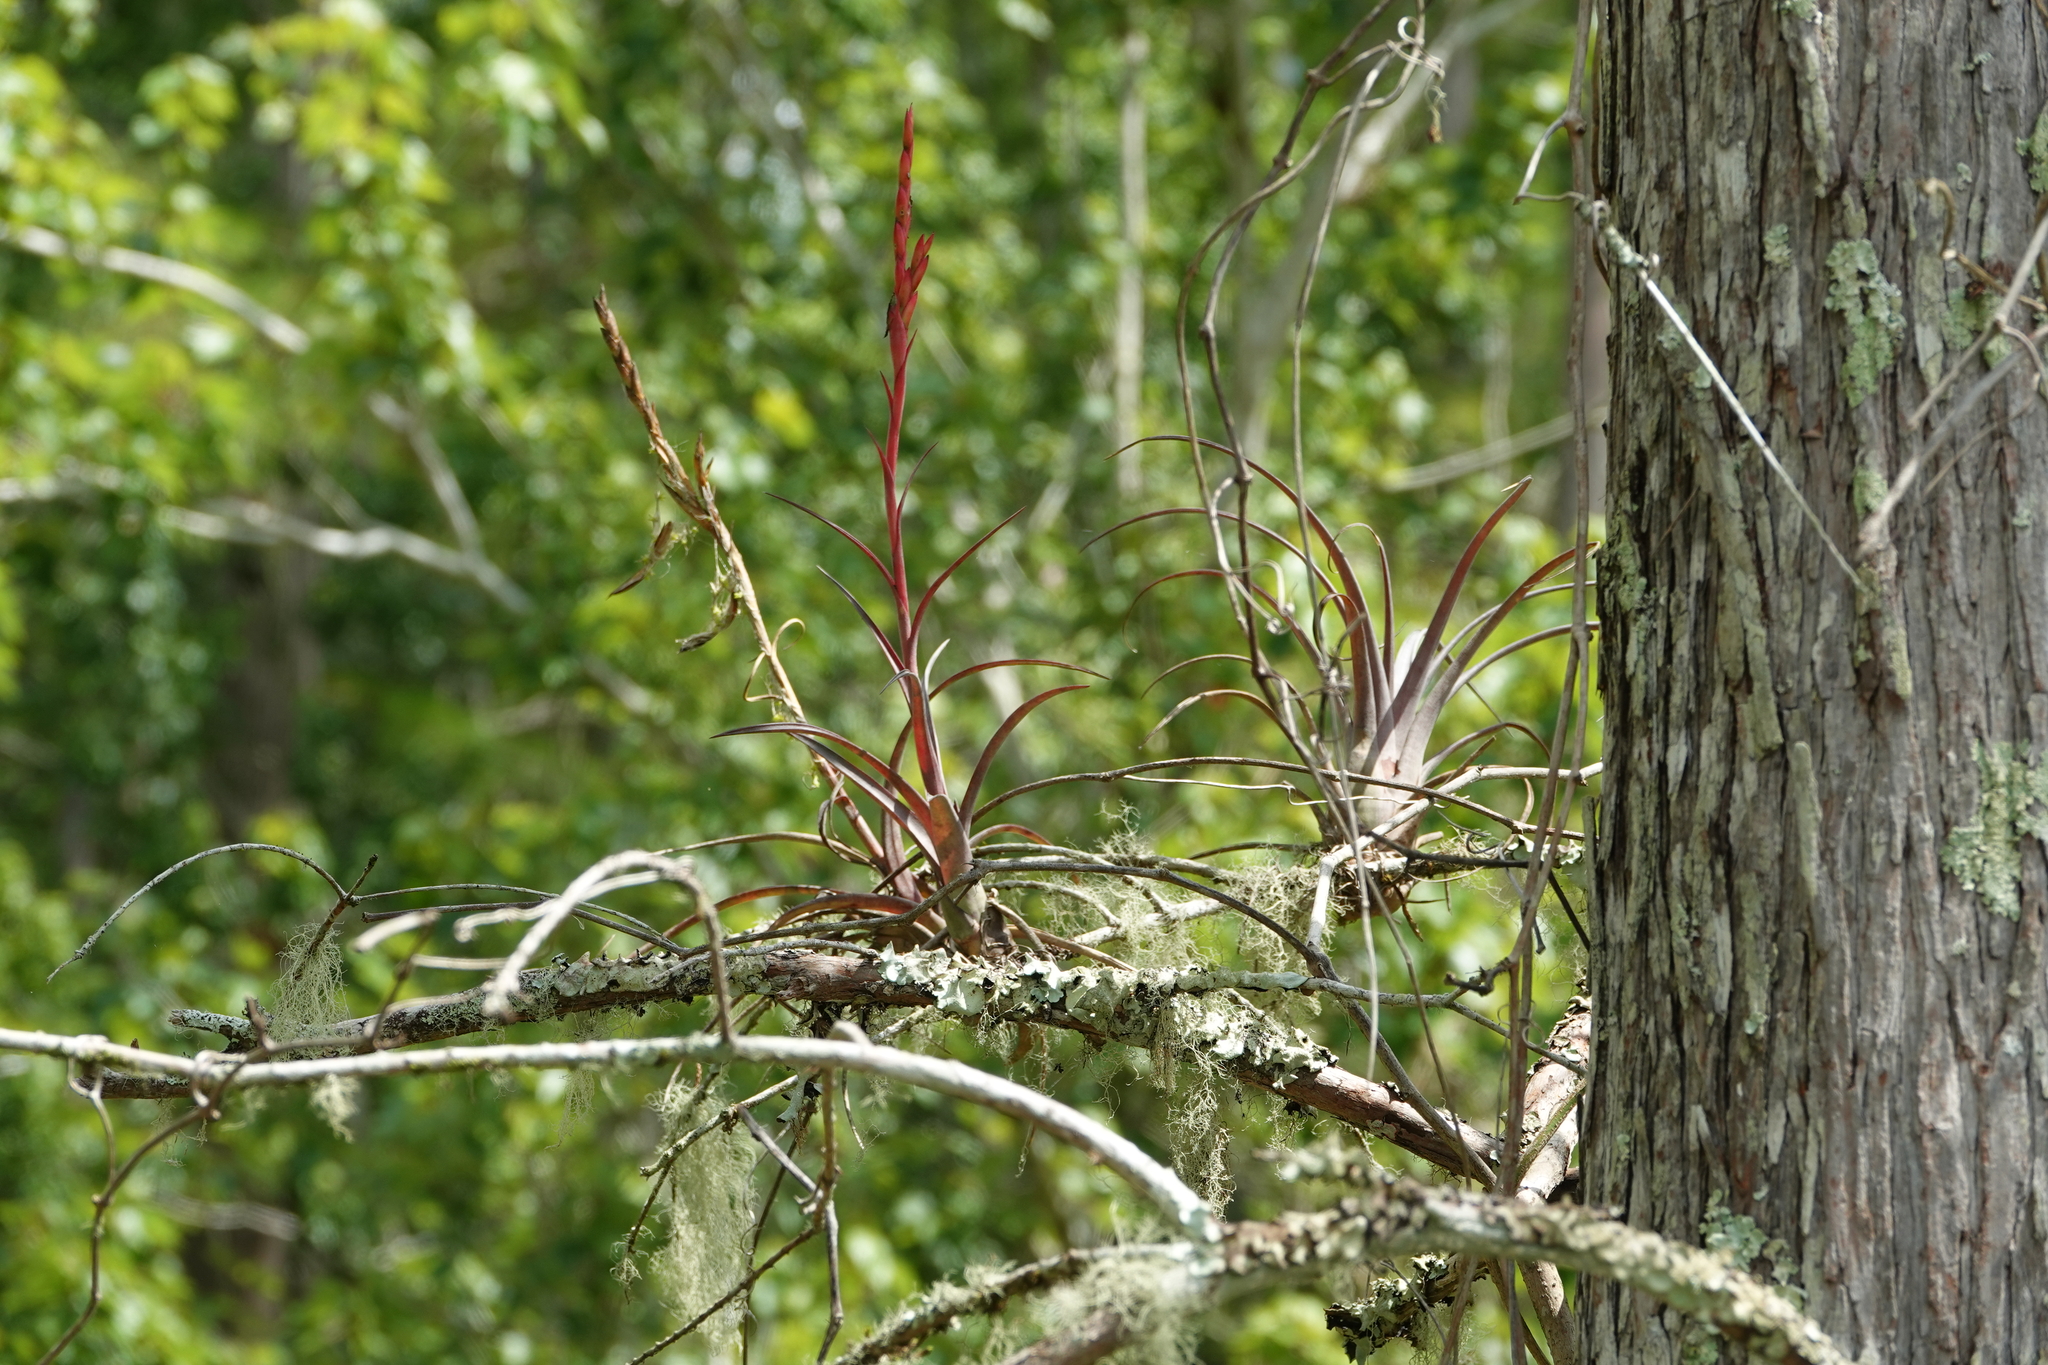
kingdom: Plantae
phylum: Tracheophyta
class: Liliopsida
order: Poales
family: Bromeliaceae
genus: Tillandsia
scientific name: Tillandsia balbisiana
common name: Northern needleleaf
